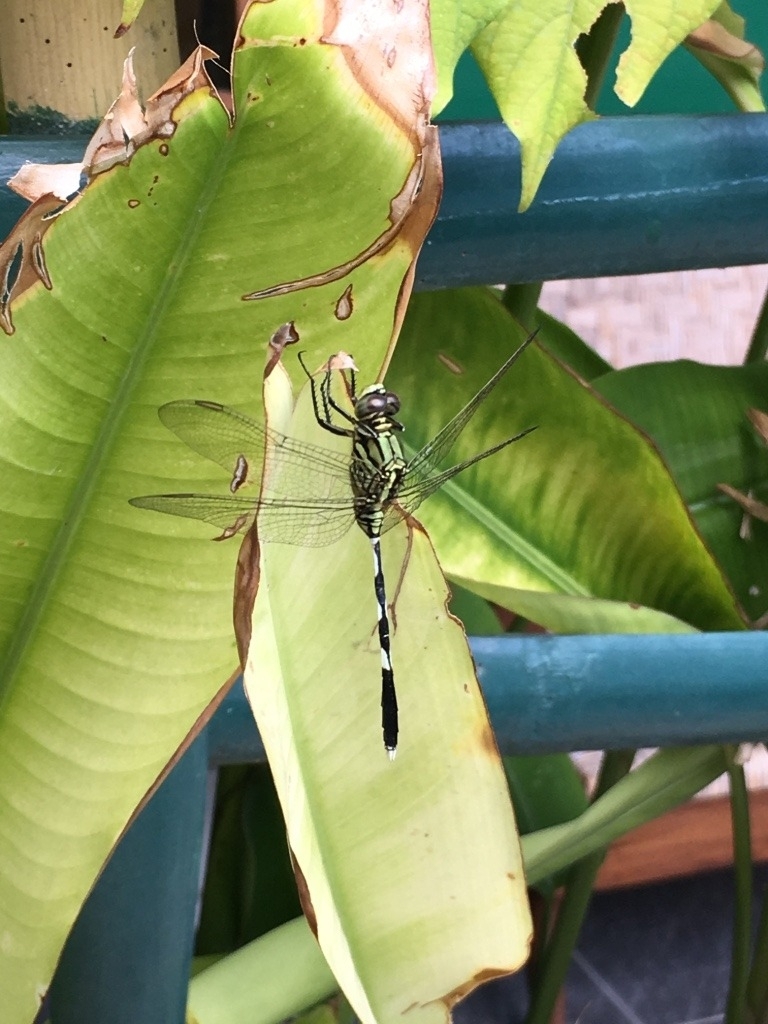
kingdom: Animalia
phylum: Arthropoda
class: Insecta
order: Odonata
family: Libellulidae
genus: Orthetrum
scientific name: Orthetrum sabina
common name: Slender skimmer
